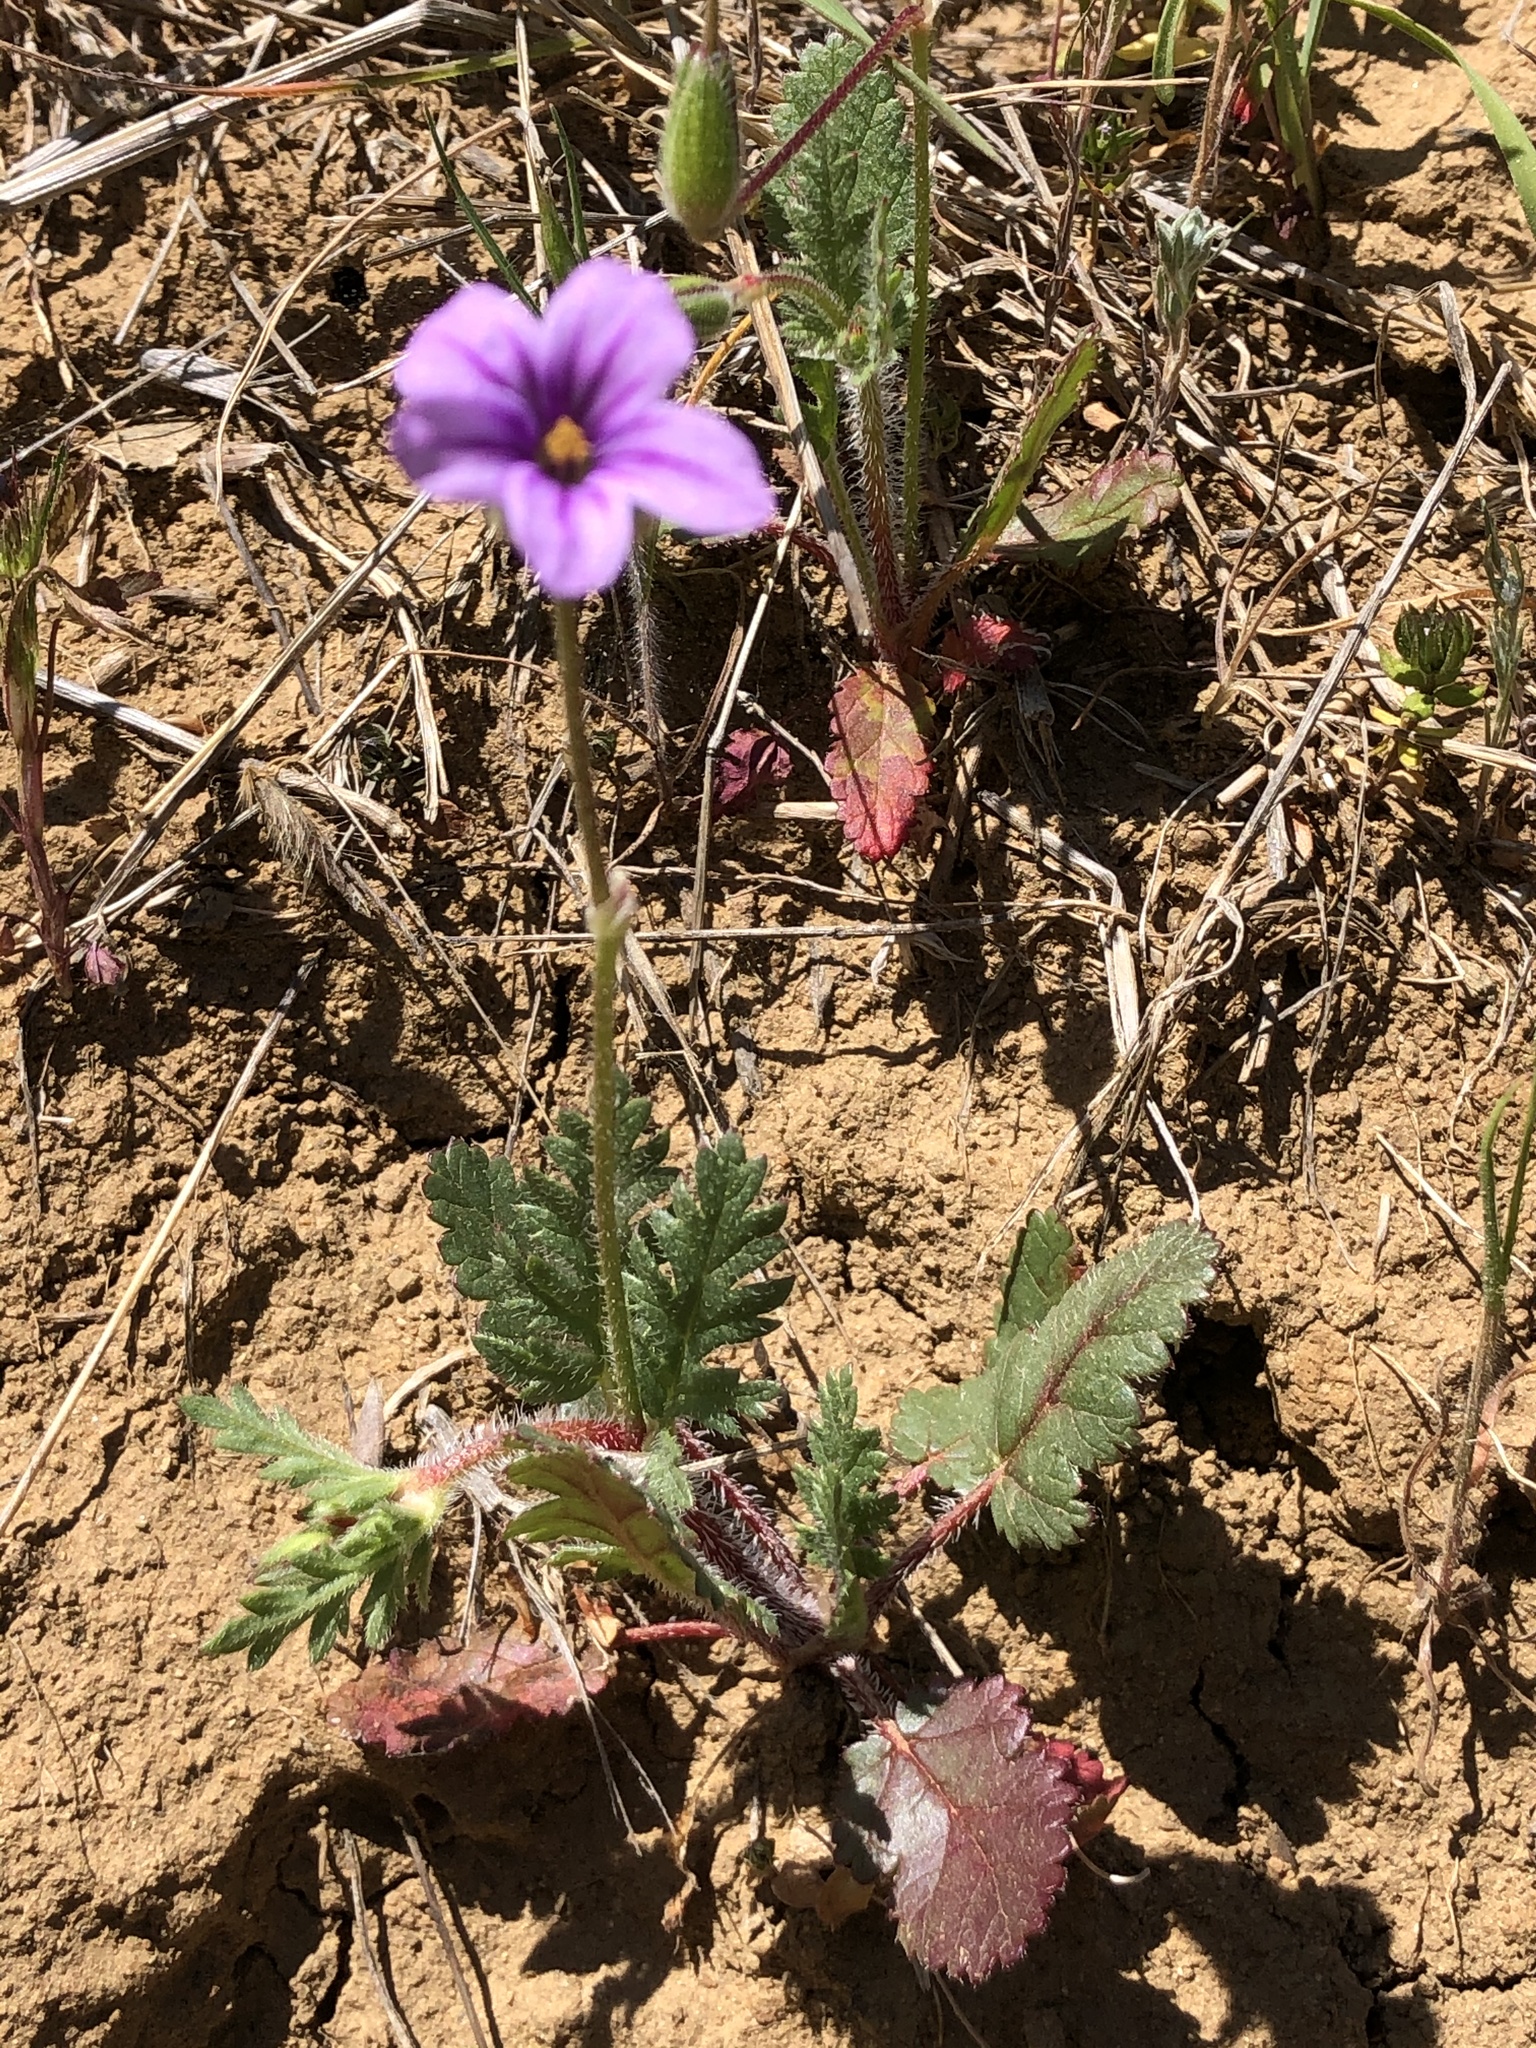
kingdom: Plantae
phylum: Tracheophyta
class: Magnoliopsida
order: Geraniales
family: Geraniaceae
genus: Erodium
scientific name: Erodium botrys
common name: Mediterranean stork's-bill
